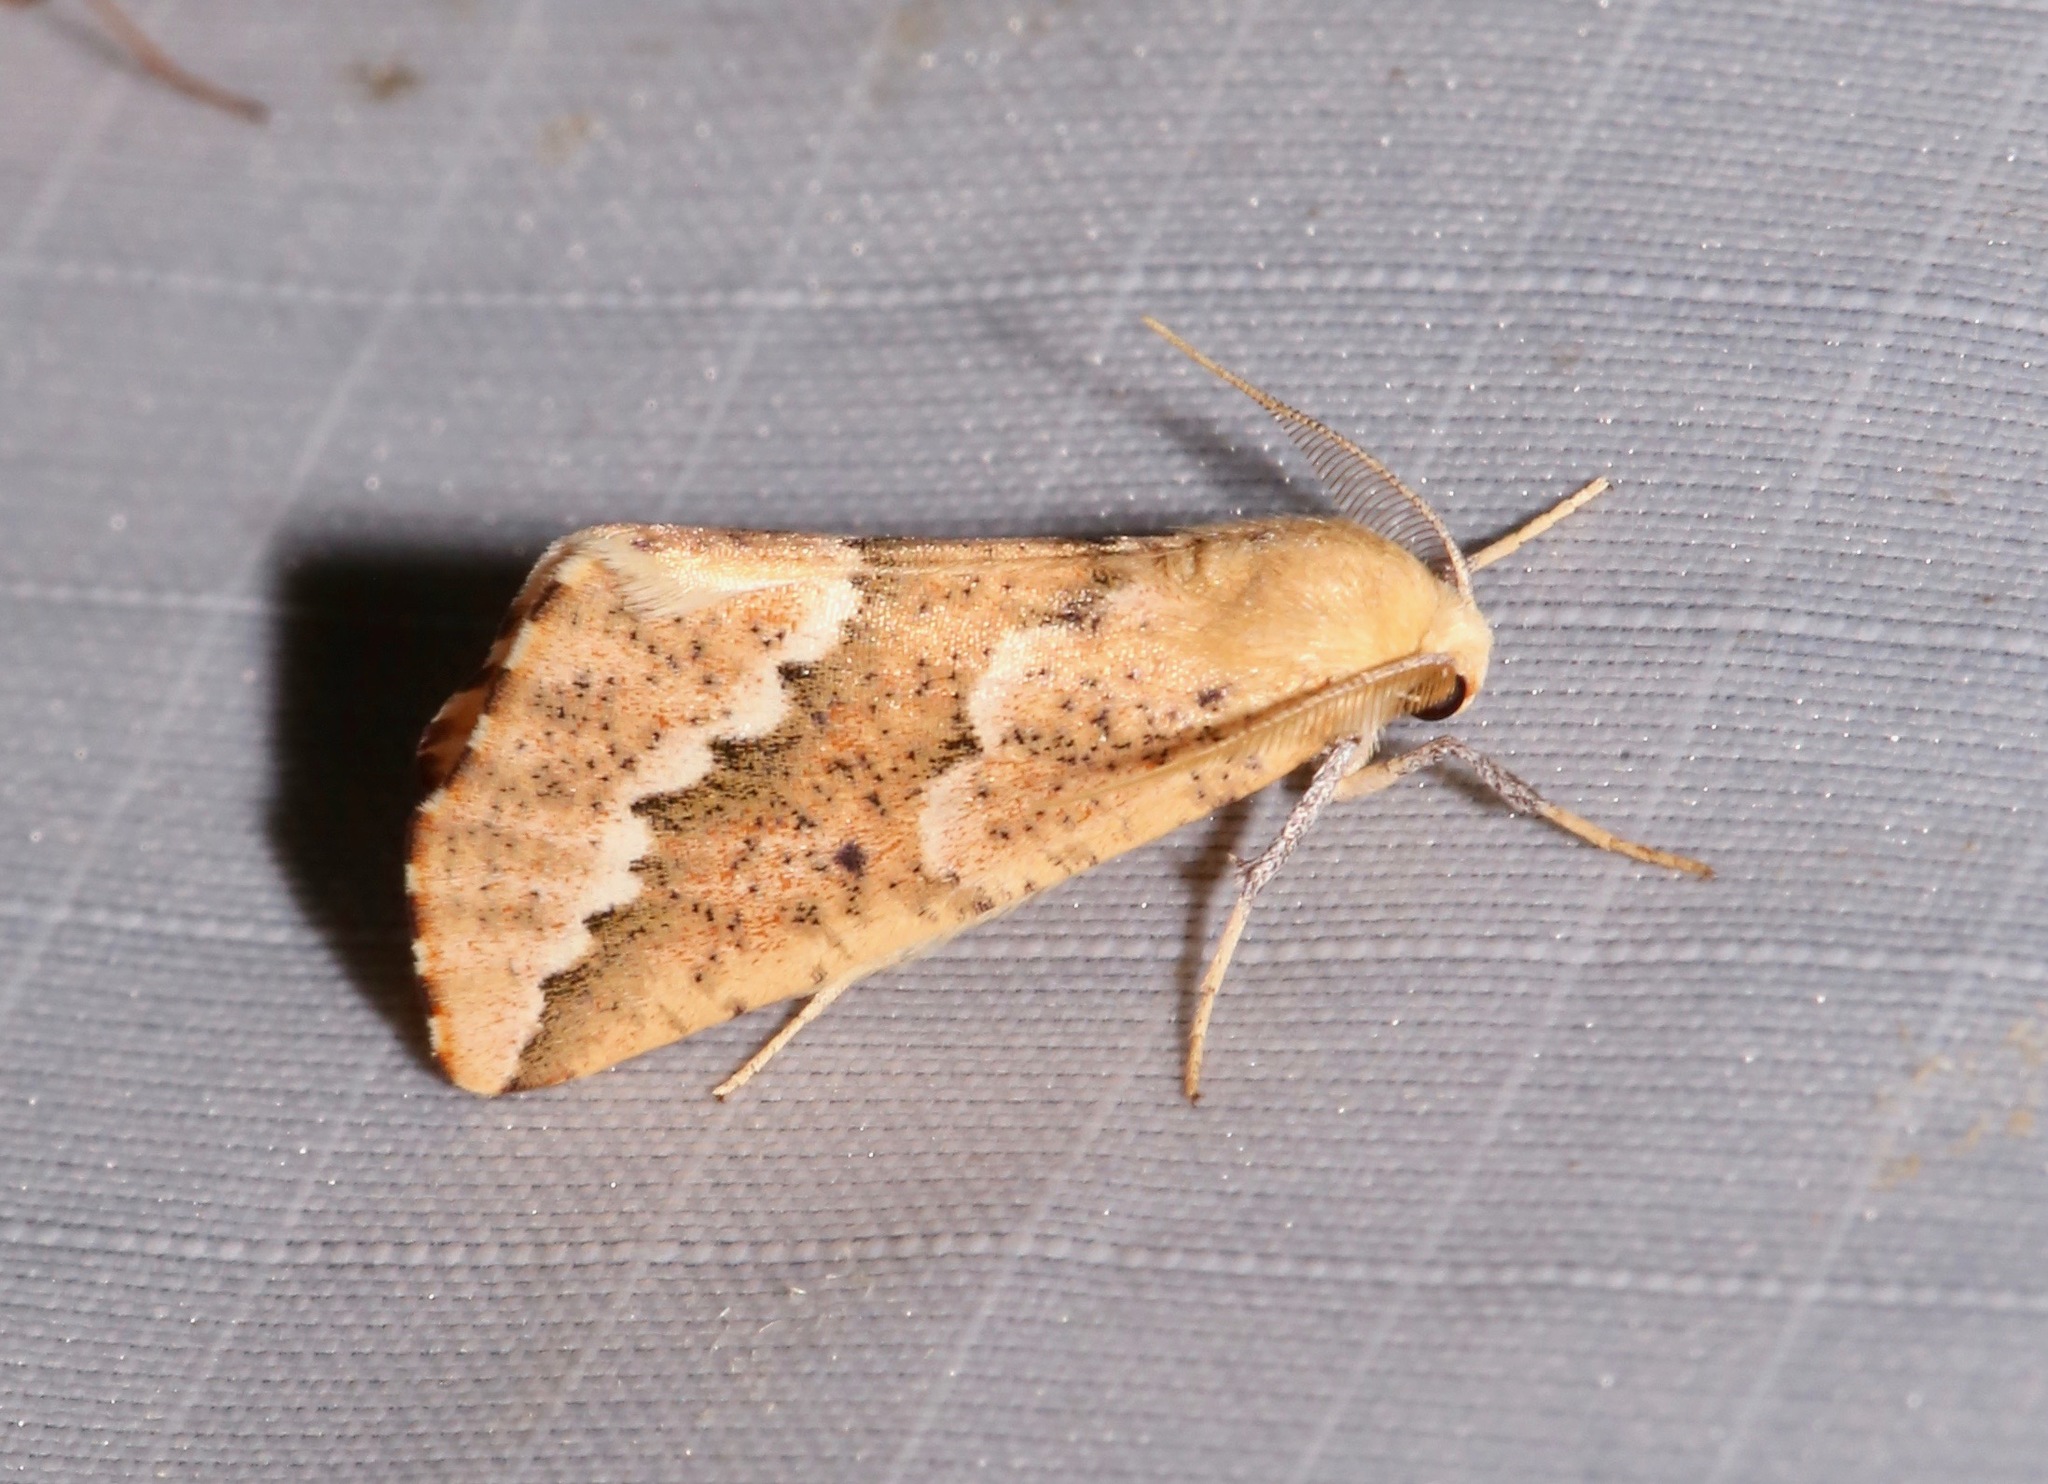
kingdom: Animalia
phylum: Arthropoda
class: Insecta
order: Lepidoptera
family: Geometridae
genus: Sicya
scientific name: Sicya morsicaria
